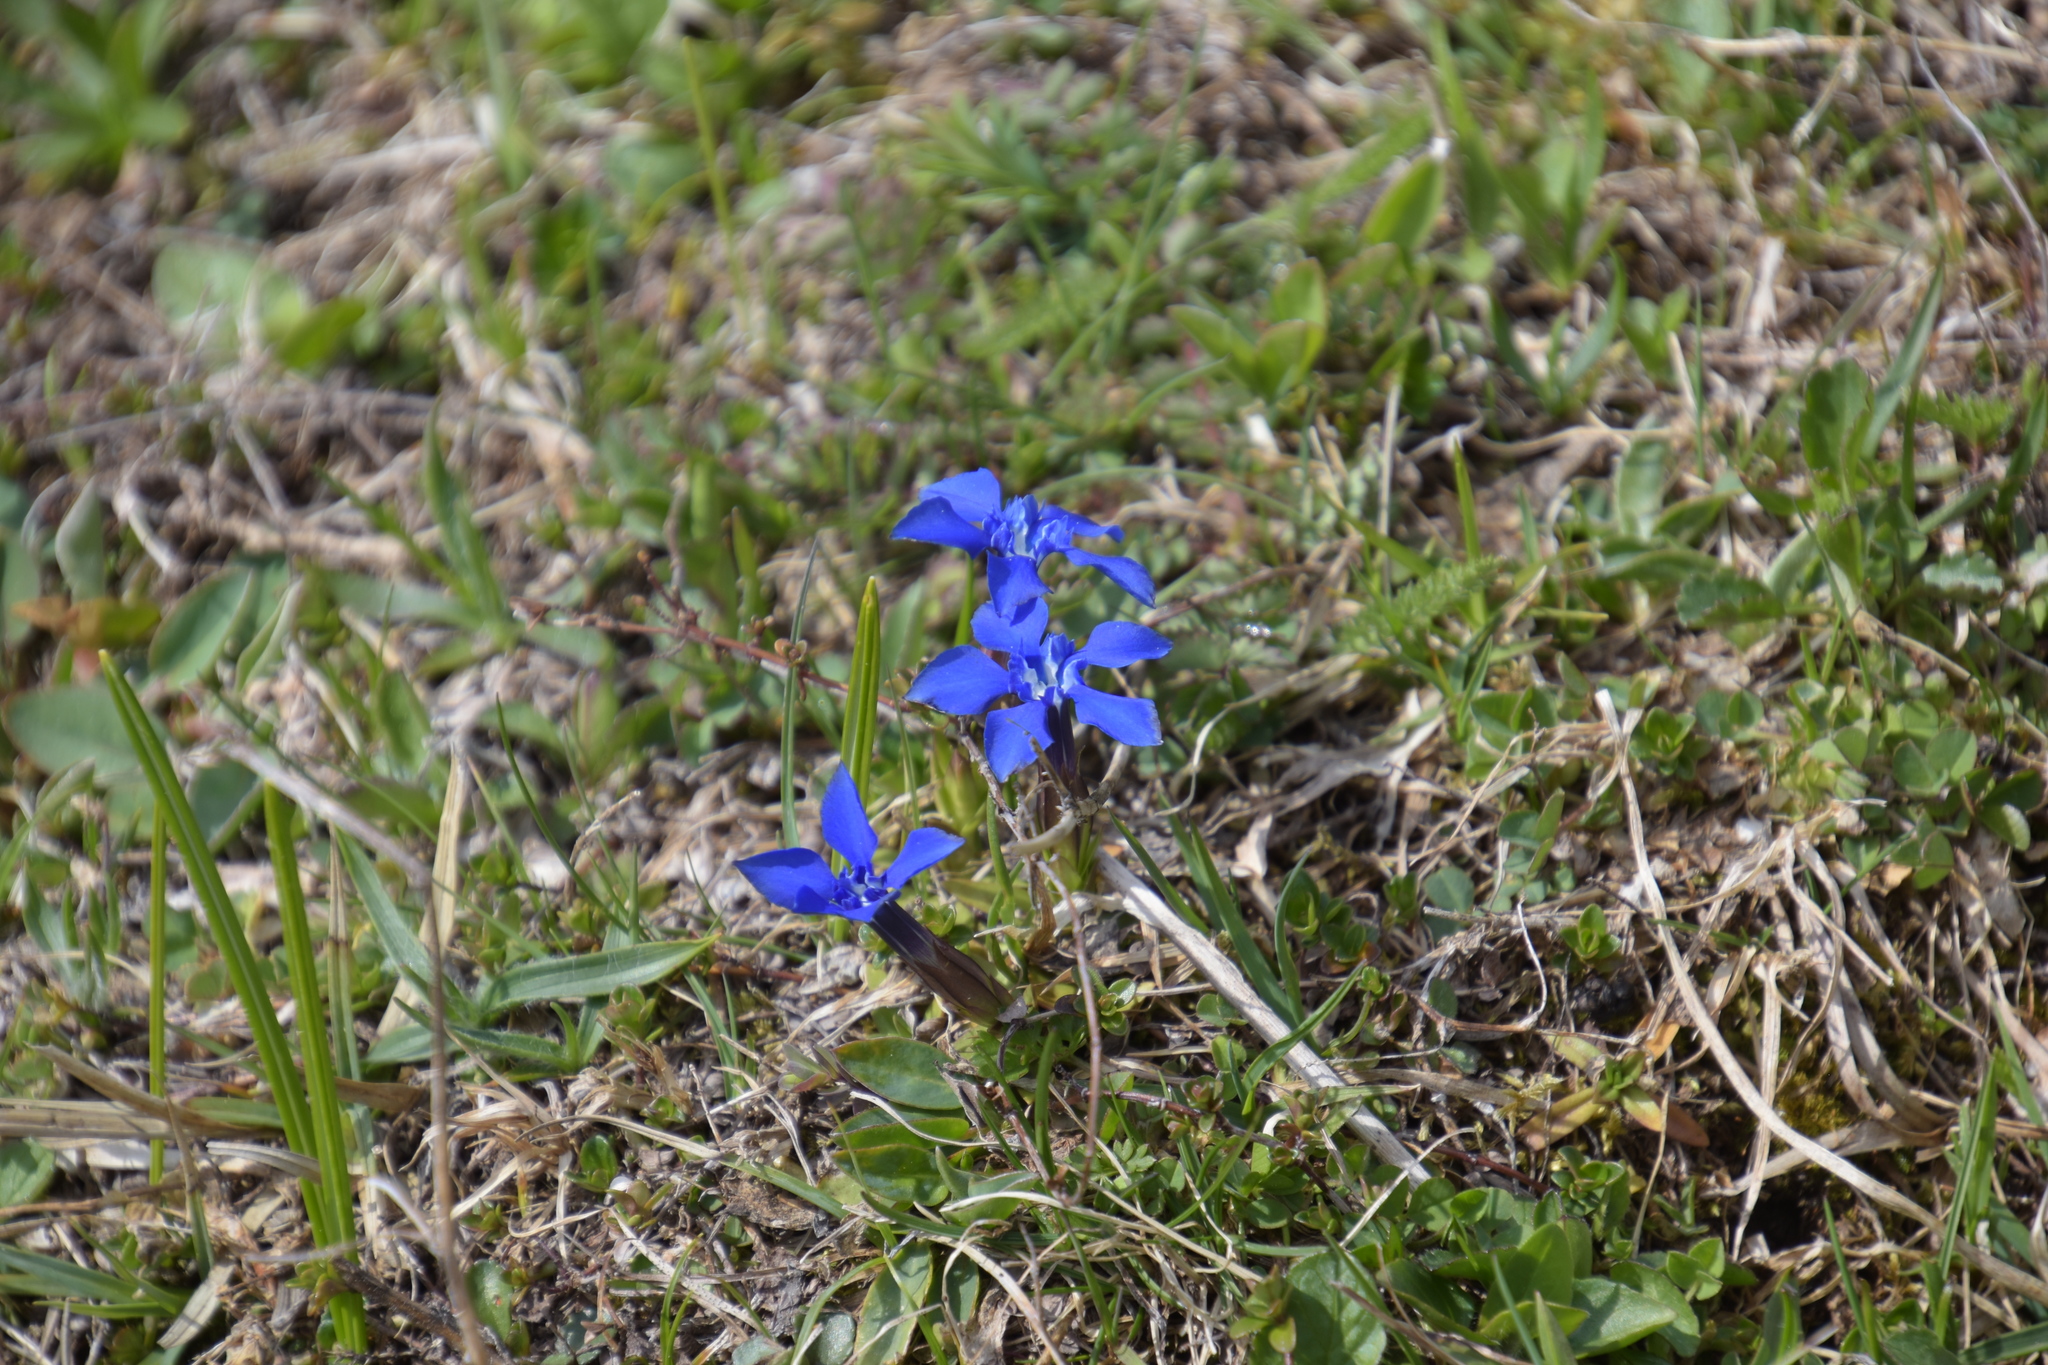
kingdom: Plantae
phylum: Tracheophyta
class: Magnoliopsida
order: Gentianales
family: Gentianaceae
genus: Gentiana
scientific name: Gentiana verna
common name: Spring gentian
